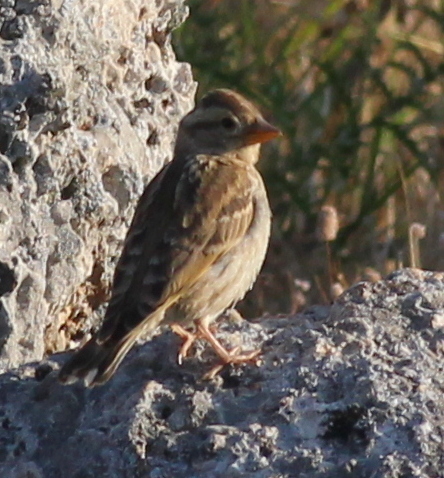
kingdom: Animalia
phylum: Chordata
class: Aves
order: Passeriformes
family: Passeridae
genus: Petronia
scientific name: Petronia petronia
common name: Rock sparrow
